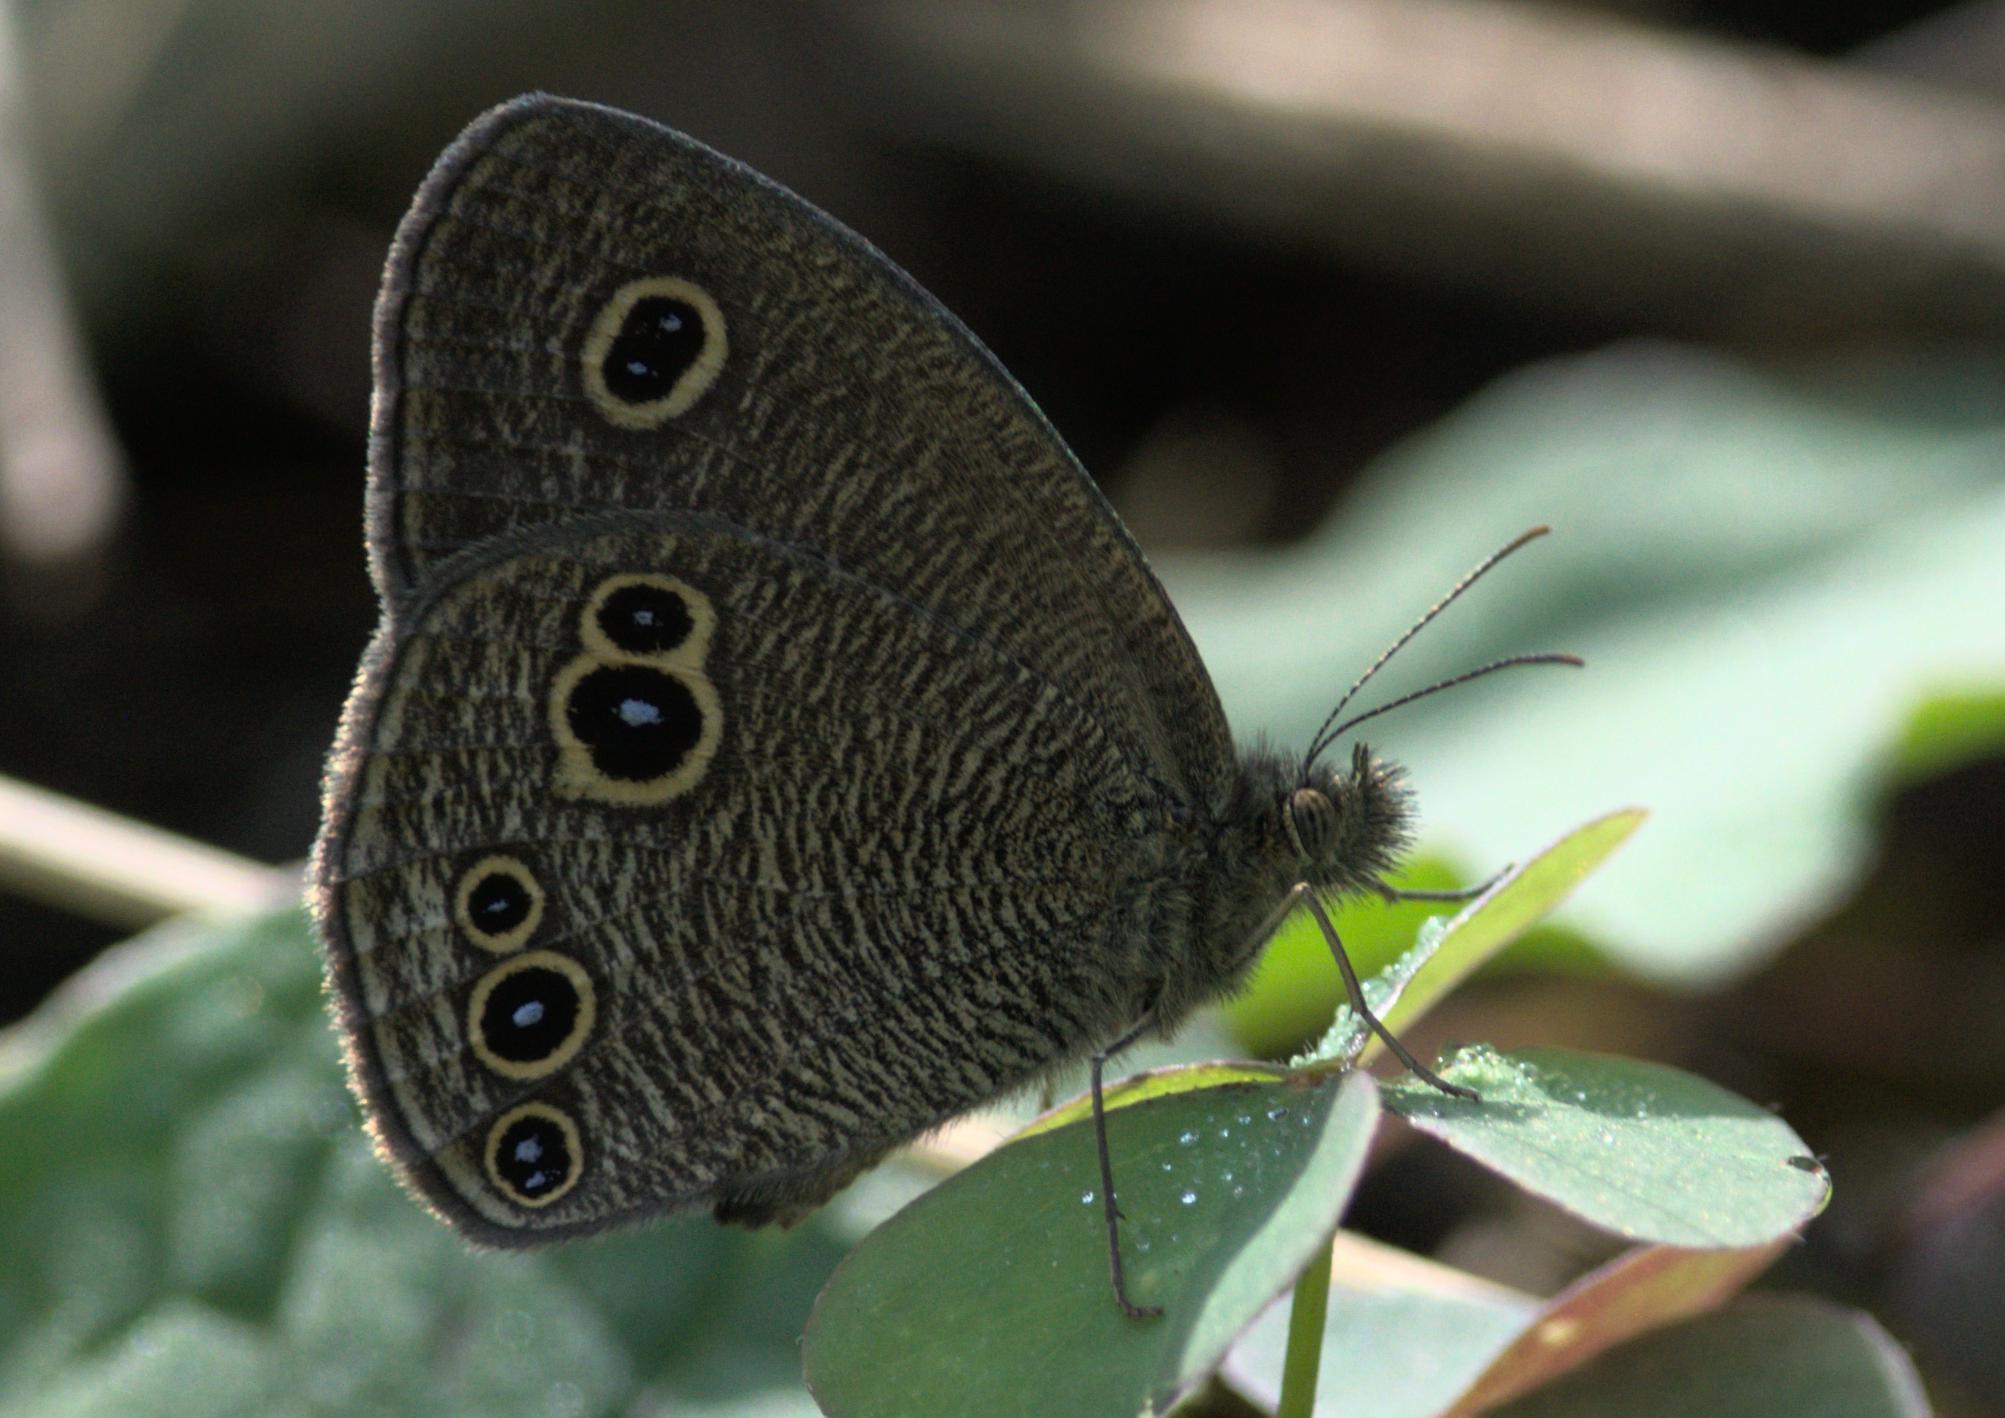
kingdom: Animalia
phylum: Arthropoda
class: Insecta
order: Lepidoptera
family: Nymphalidae
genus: Ypthima
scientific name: Ypthima nikaea
